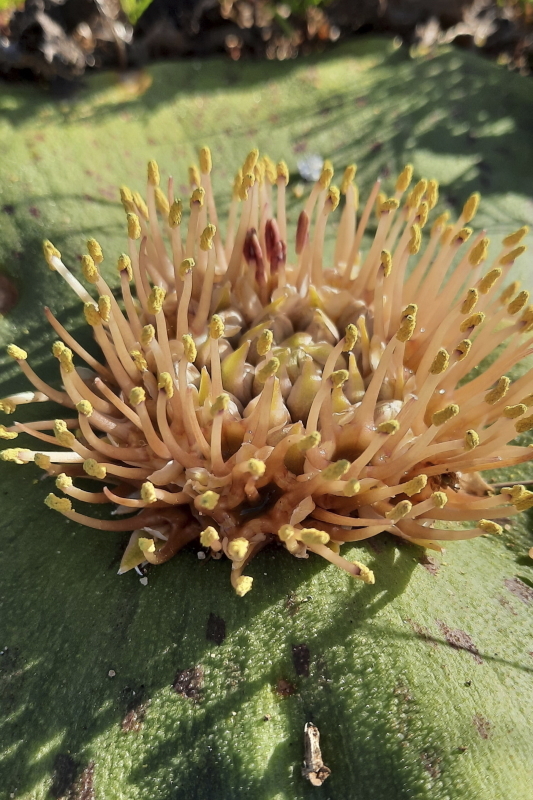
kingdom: Plantae
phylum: Tracheophyta
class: Liliopsida
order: Asparagales
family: Asparagaceae
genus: Massonia
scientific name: Massonia depressa
